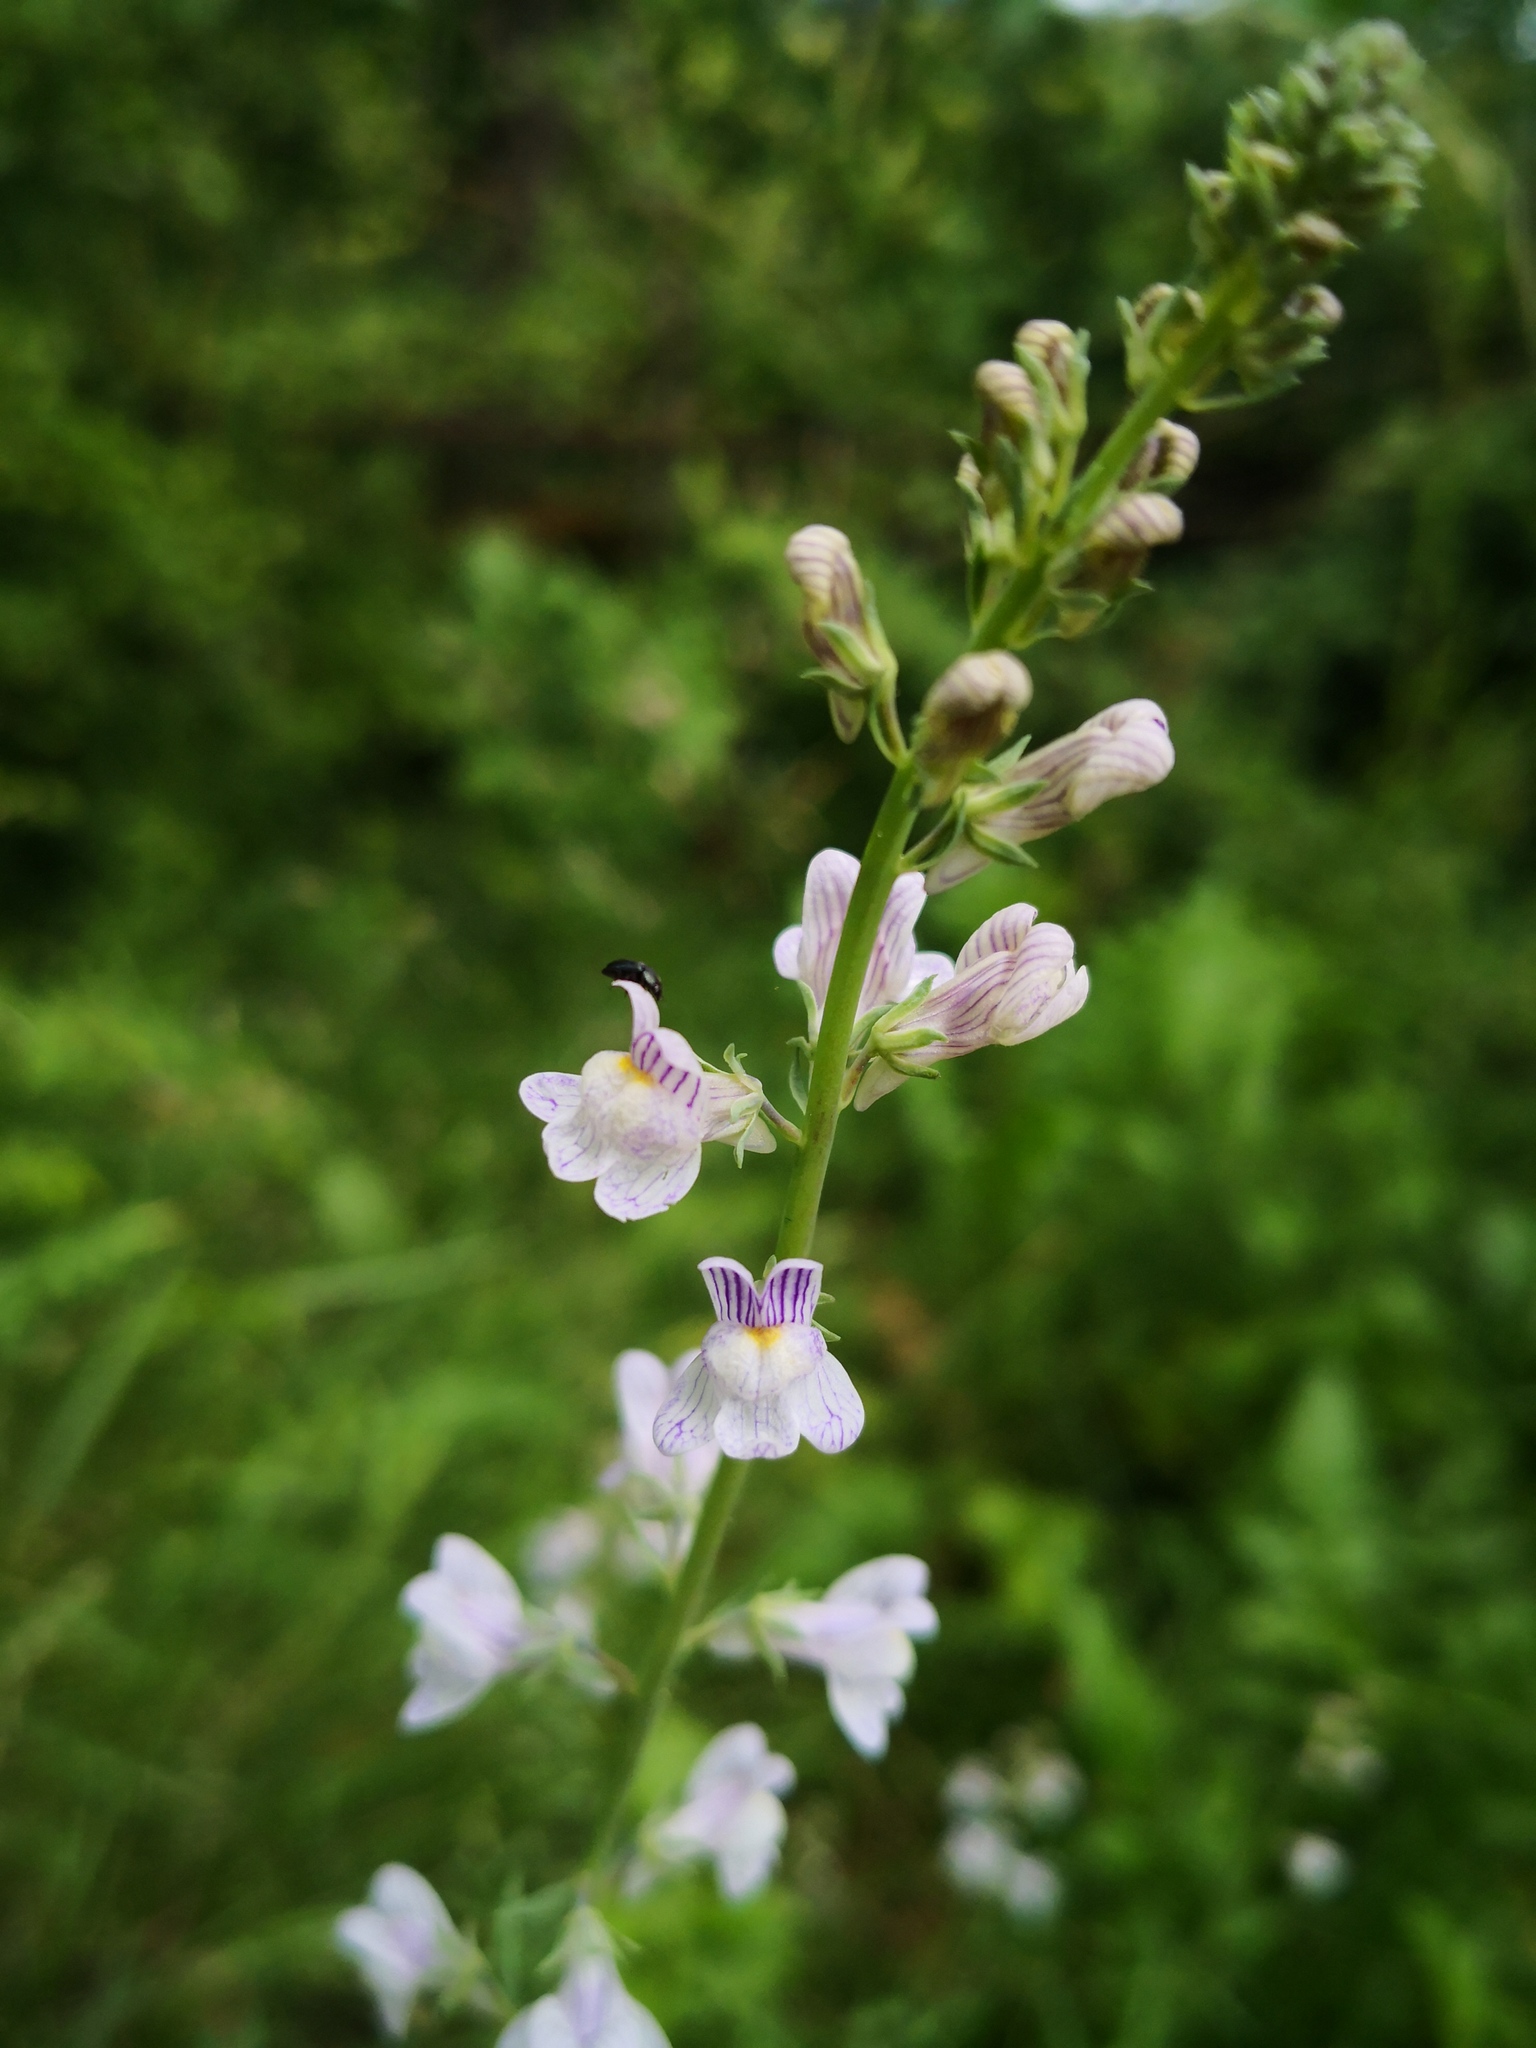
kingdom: Plantae
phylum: Tracheophyta
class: Magnoliopsida
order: Lamiales
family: Plantaginaceae
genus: Linaria
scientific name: Linaria repens
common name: Pale toadflax
